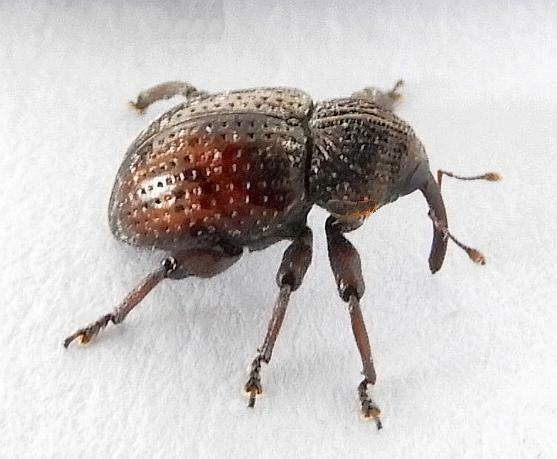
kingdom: Animalia
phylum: Arthropoda
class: Insecta
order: Coleoptera
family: Curculionidae
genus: Chalcodermus
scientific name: Chalcodermus collaris
